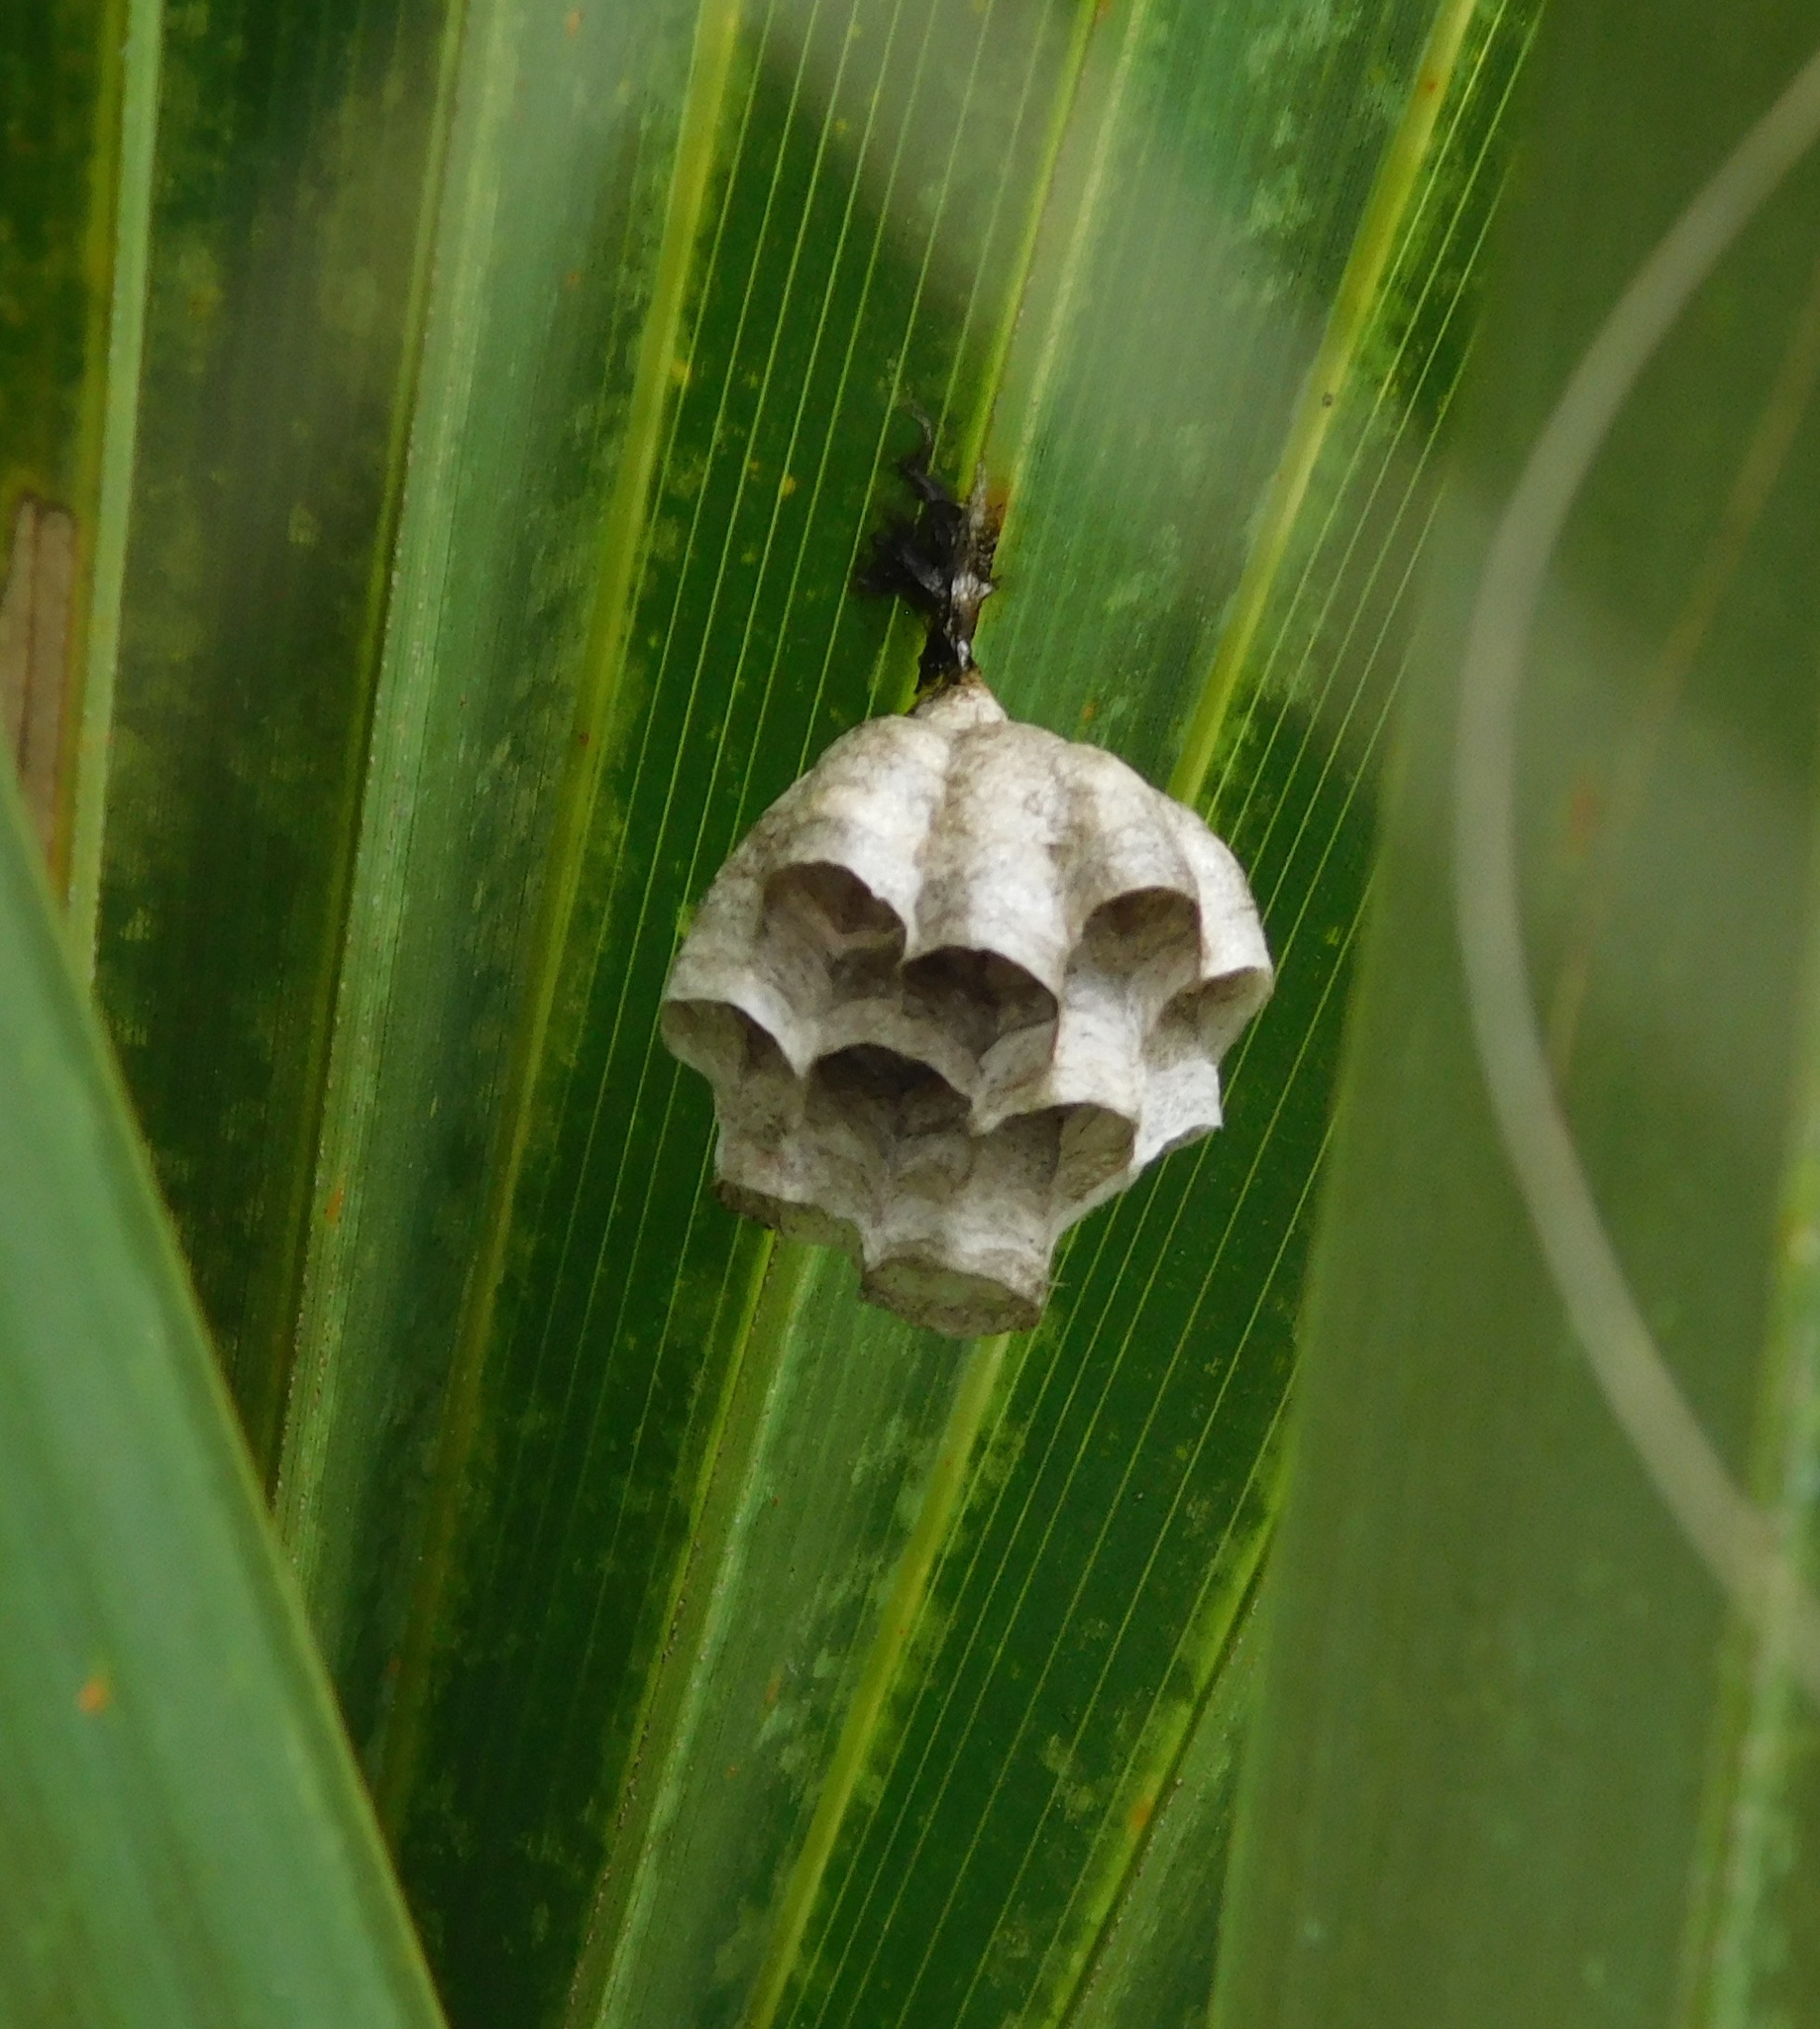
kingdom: Animalia
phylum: Arthropoda
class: Insecta
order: Hymenoptera
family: Eumenidae
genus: Polistes
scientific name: Polistes
